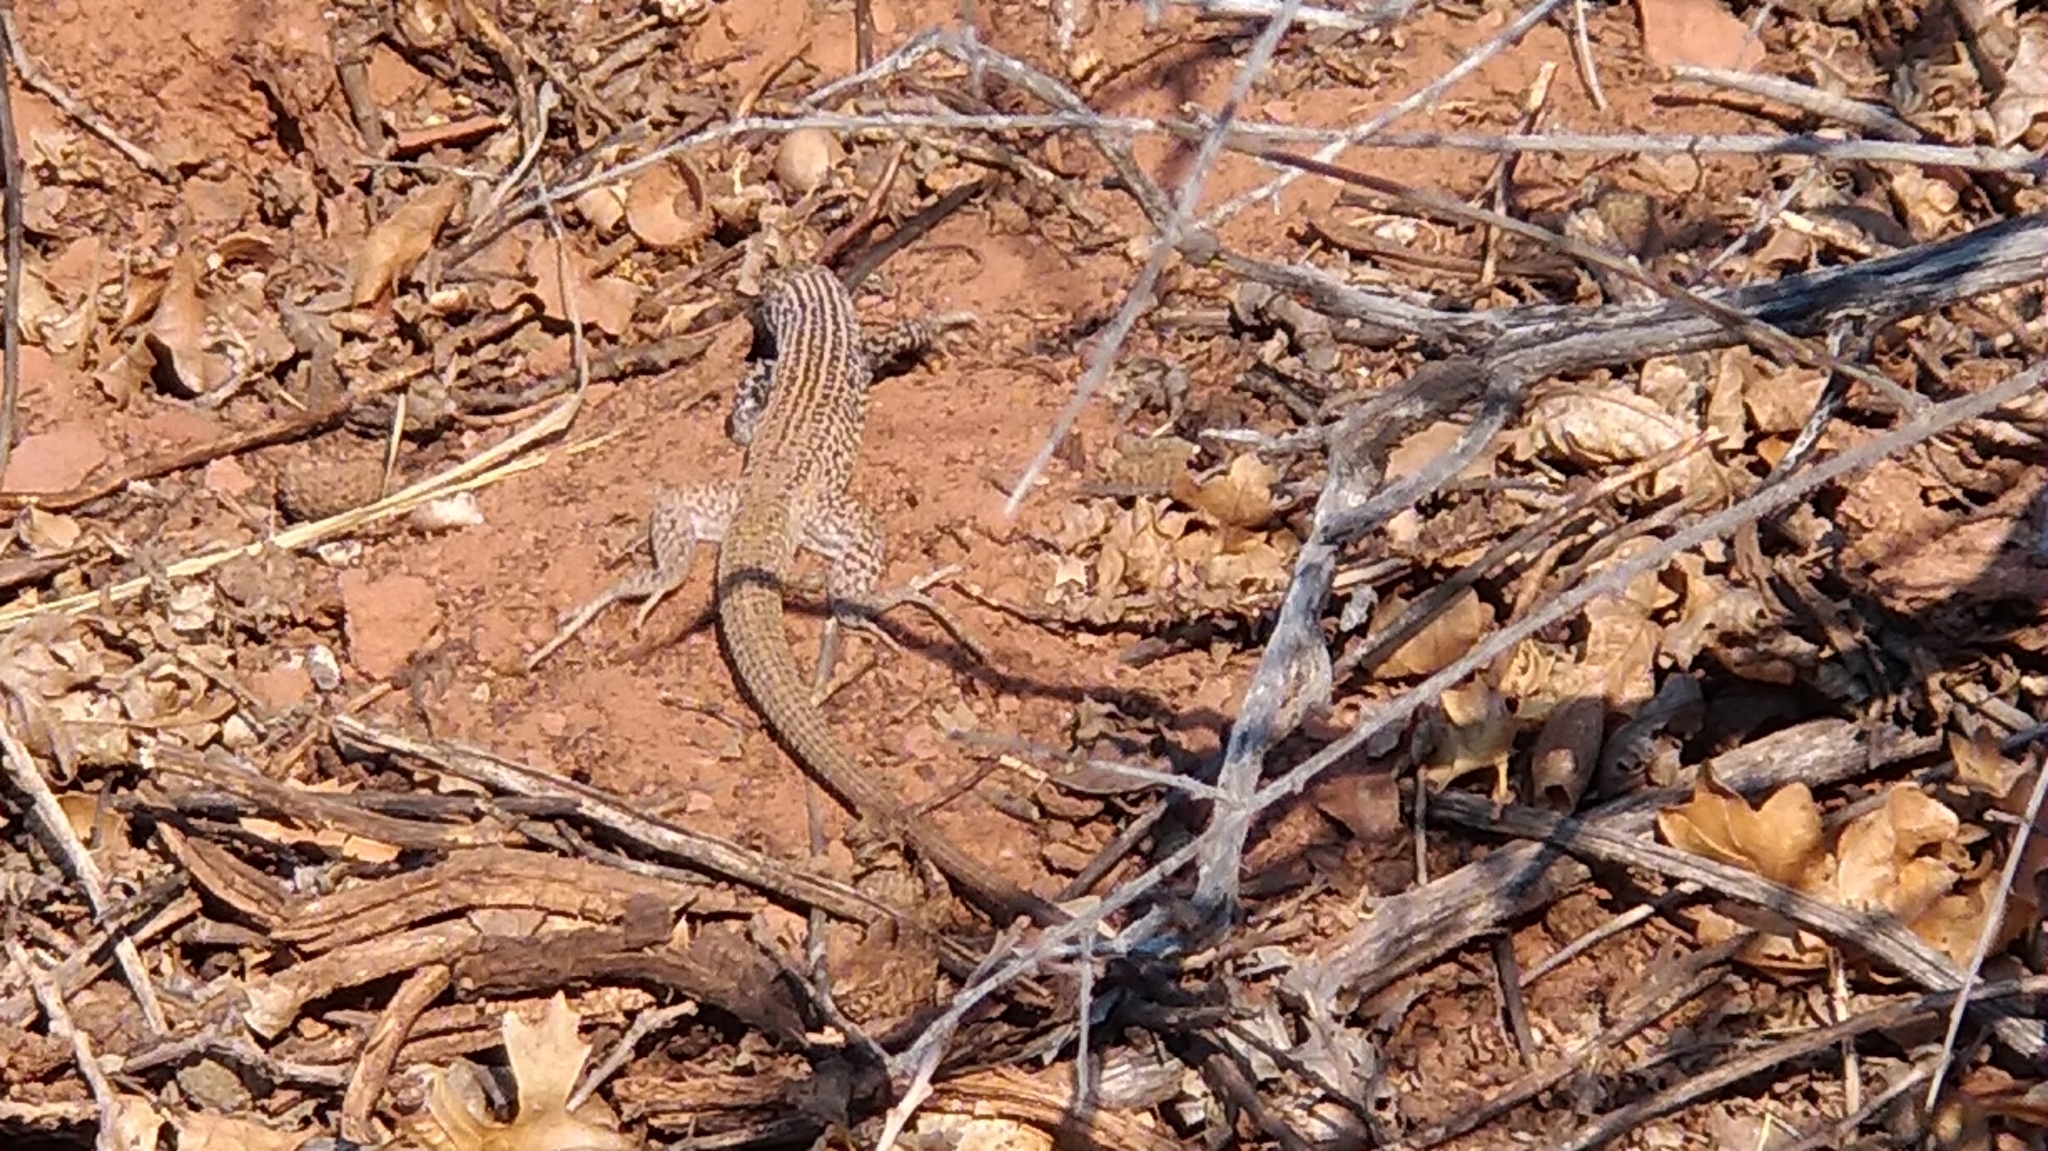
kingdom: Animalia
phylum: Chordata
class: Squamata
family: Teiidae
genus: Aspidoscelis
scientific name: Aspidoscelis tigris
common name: Tiger whiptail
